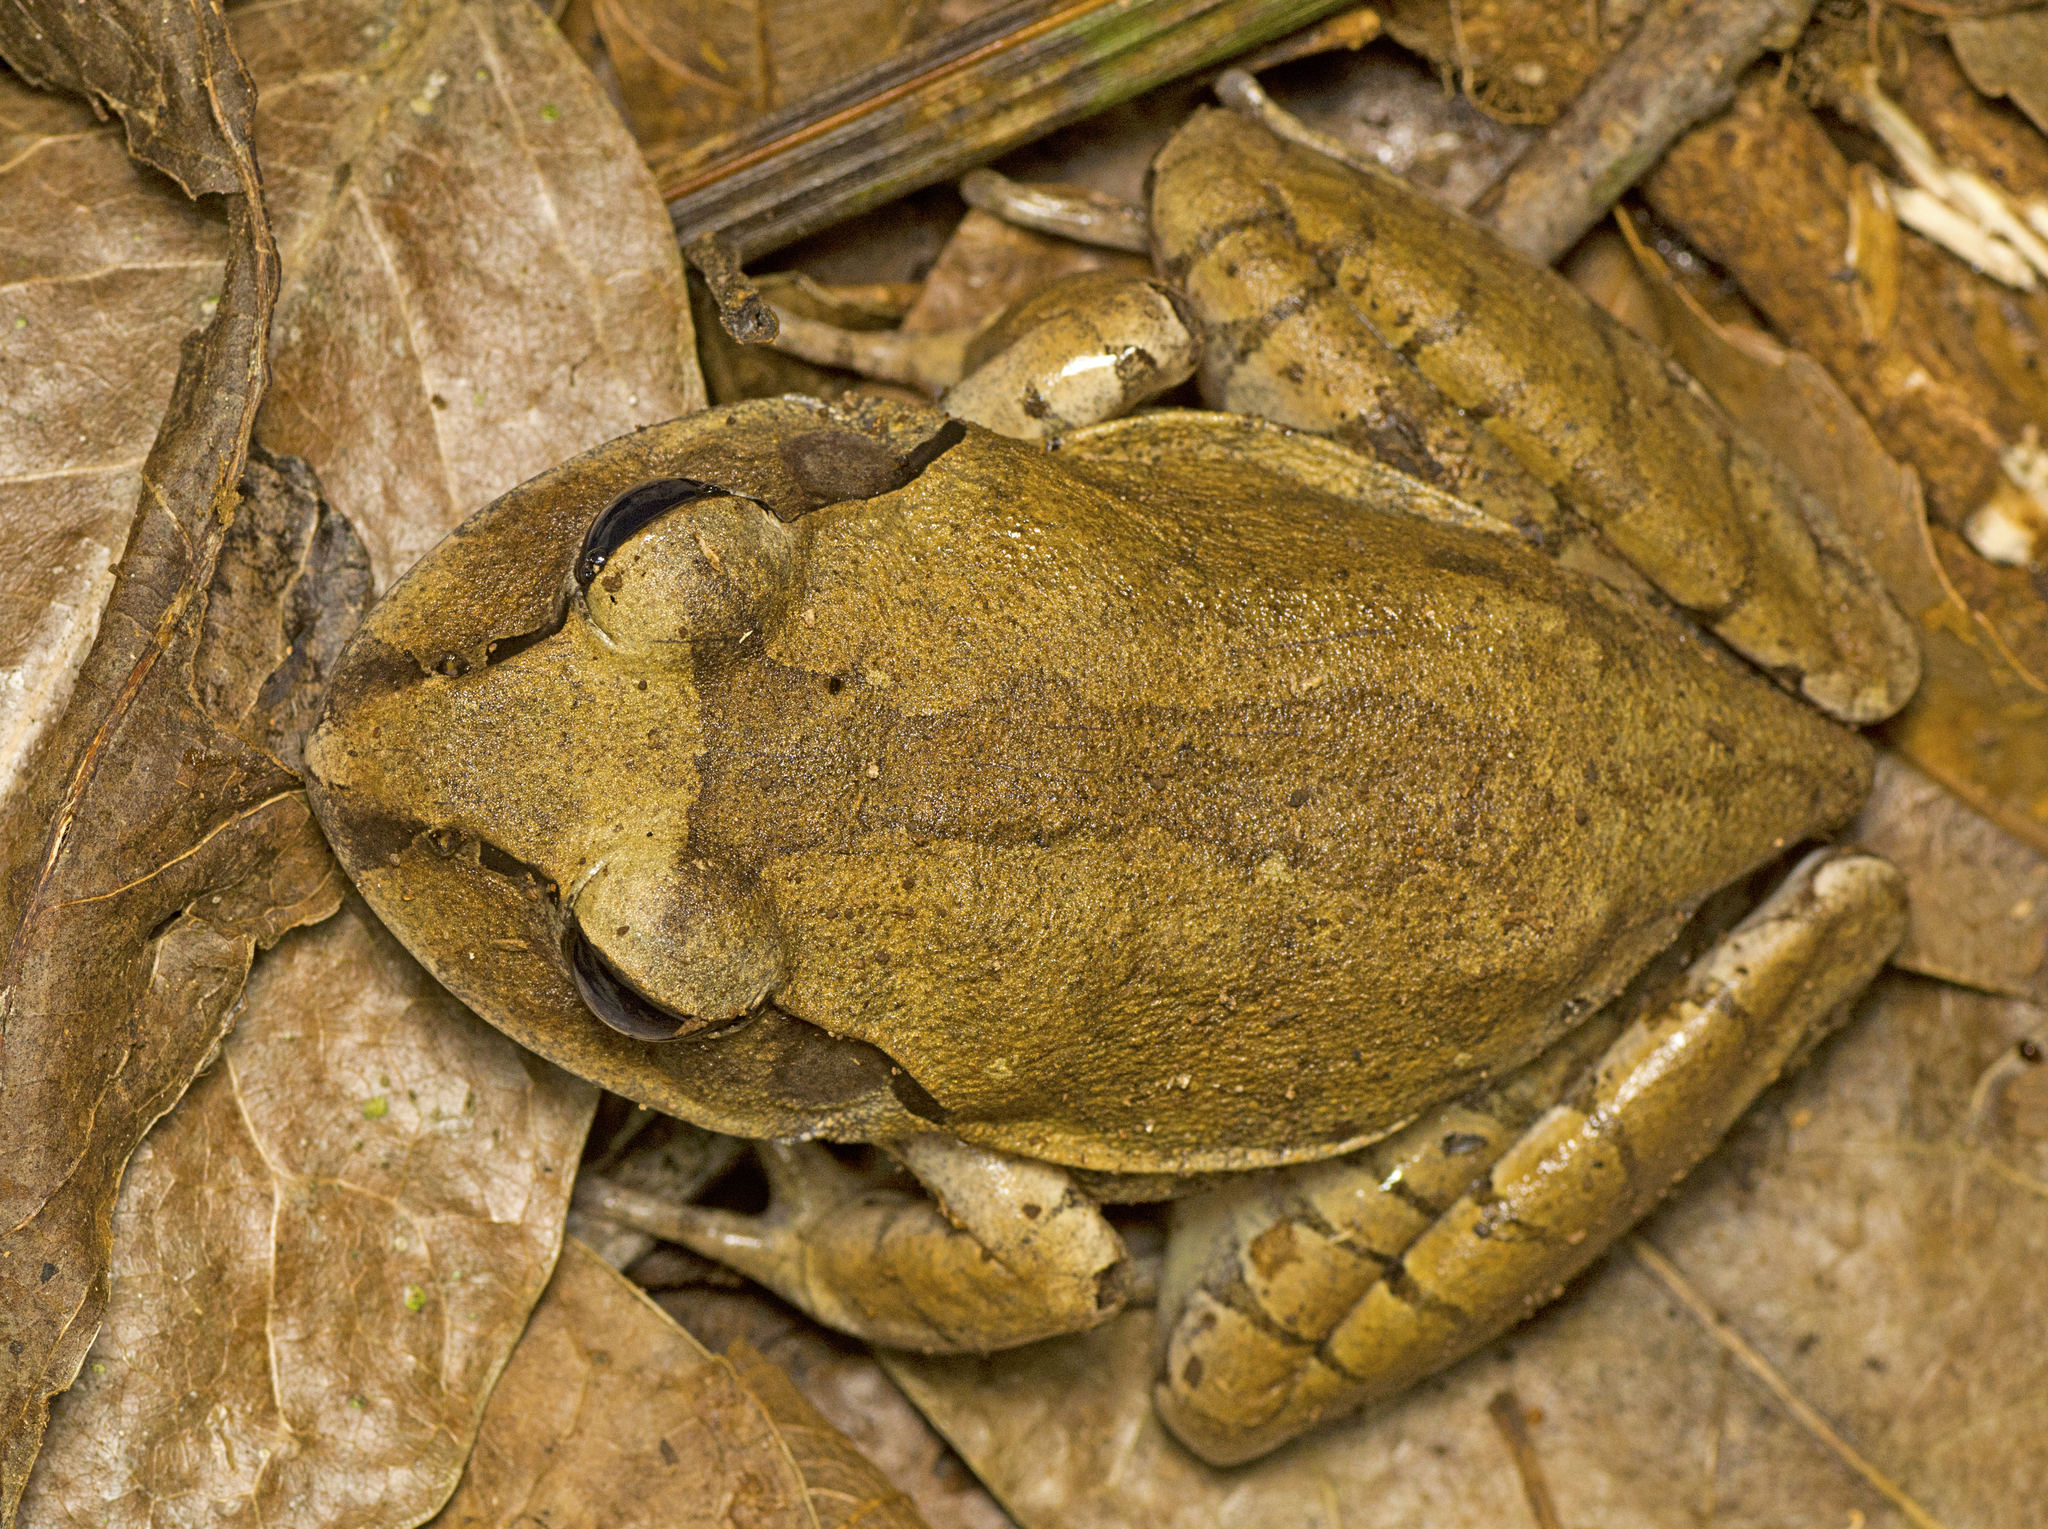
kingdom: Animalia
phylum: Chordata
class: Amphibia
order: Anura
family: Myobatrachidae
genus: Mixophyes
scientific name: Mixophyes fasciolatus
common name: Great barred river-frog
